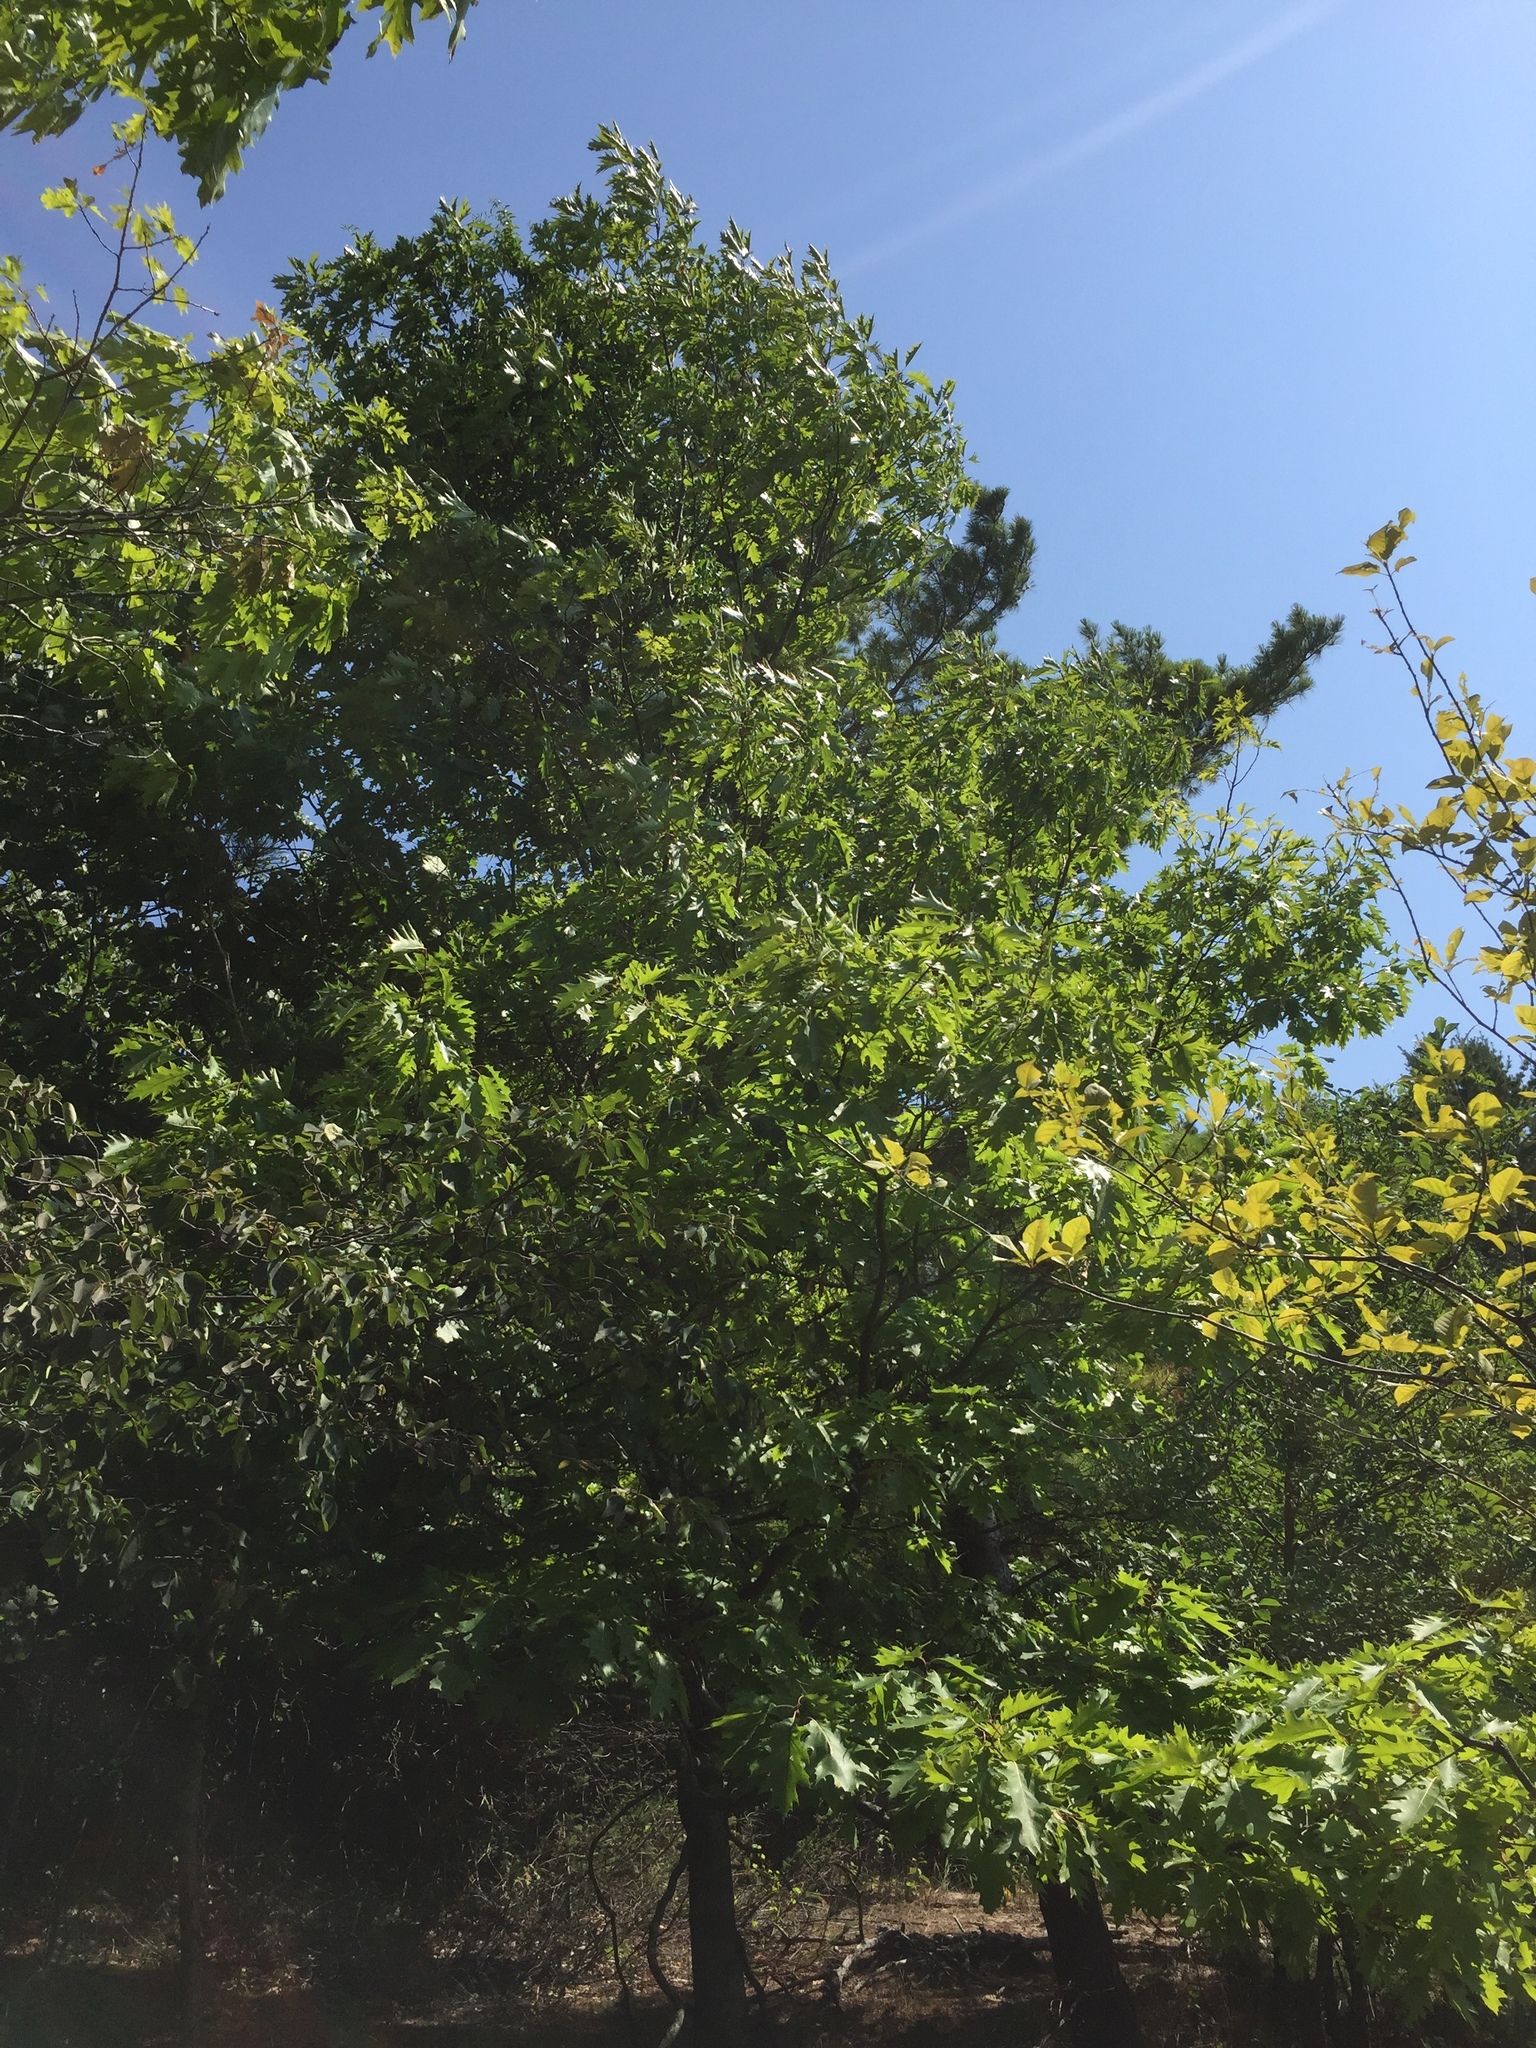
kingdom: Plantae
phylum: Tracheophyta
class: Magnoliopsida
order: Fagales
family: Fagaceae
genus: Quercus
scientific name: Quercus rubra
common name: Red oak
